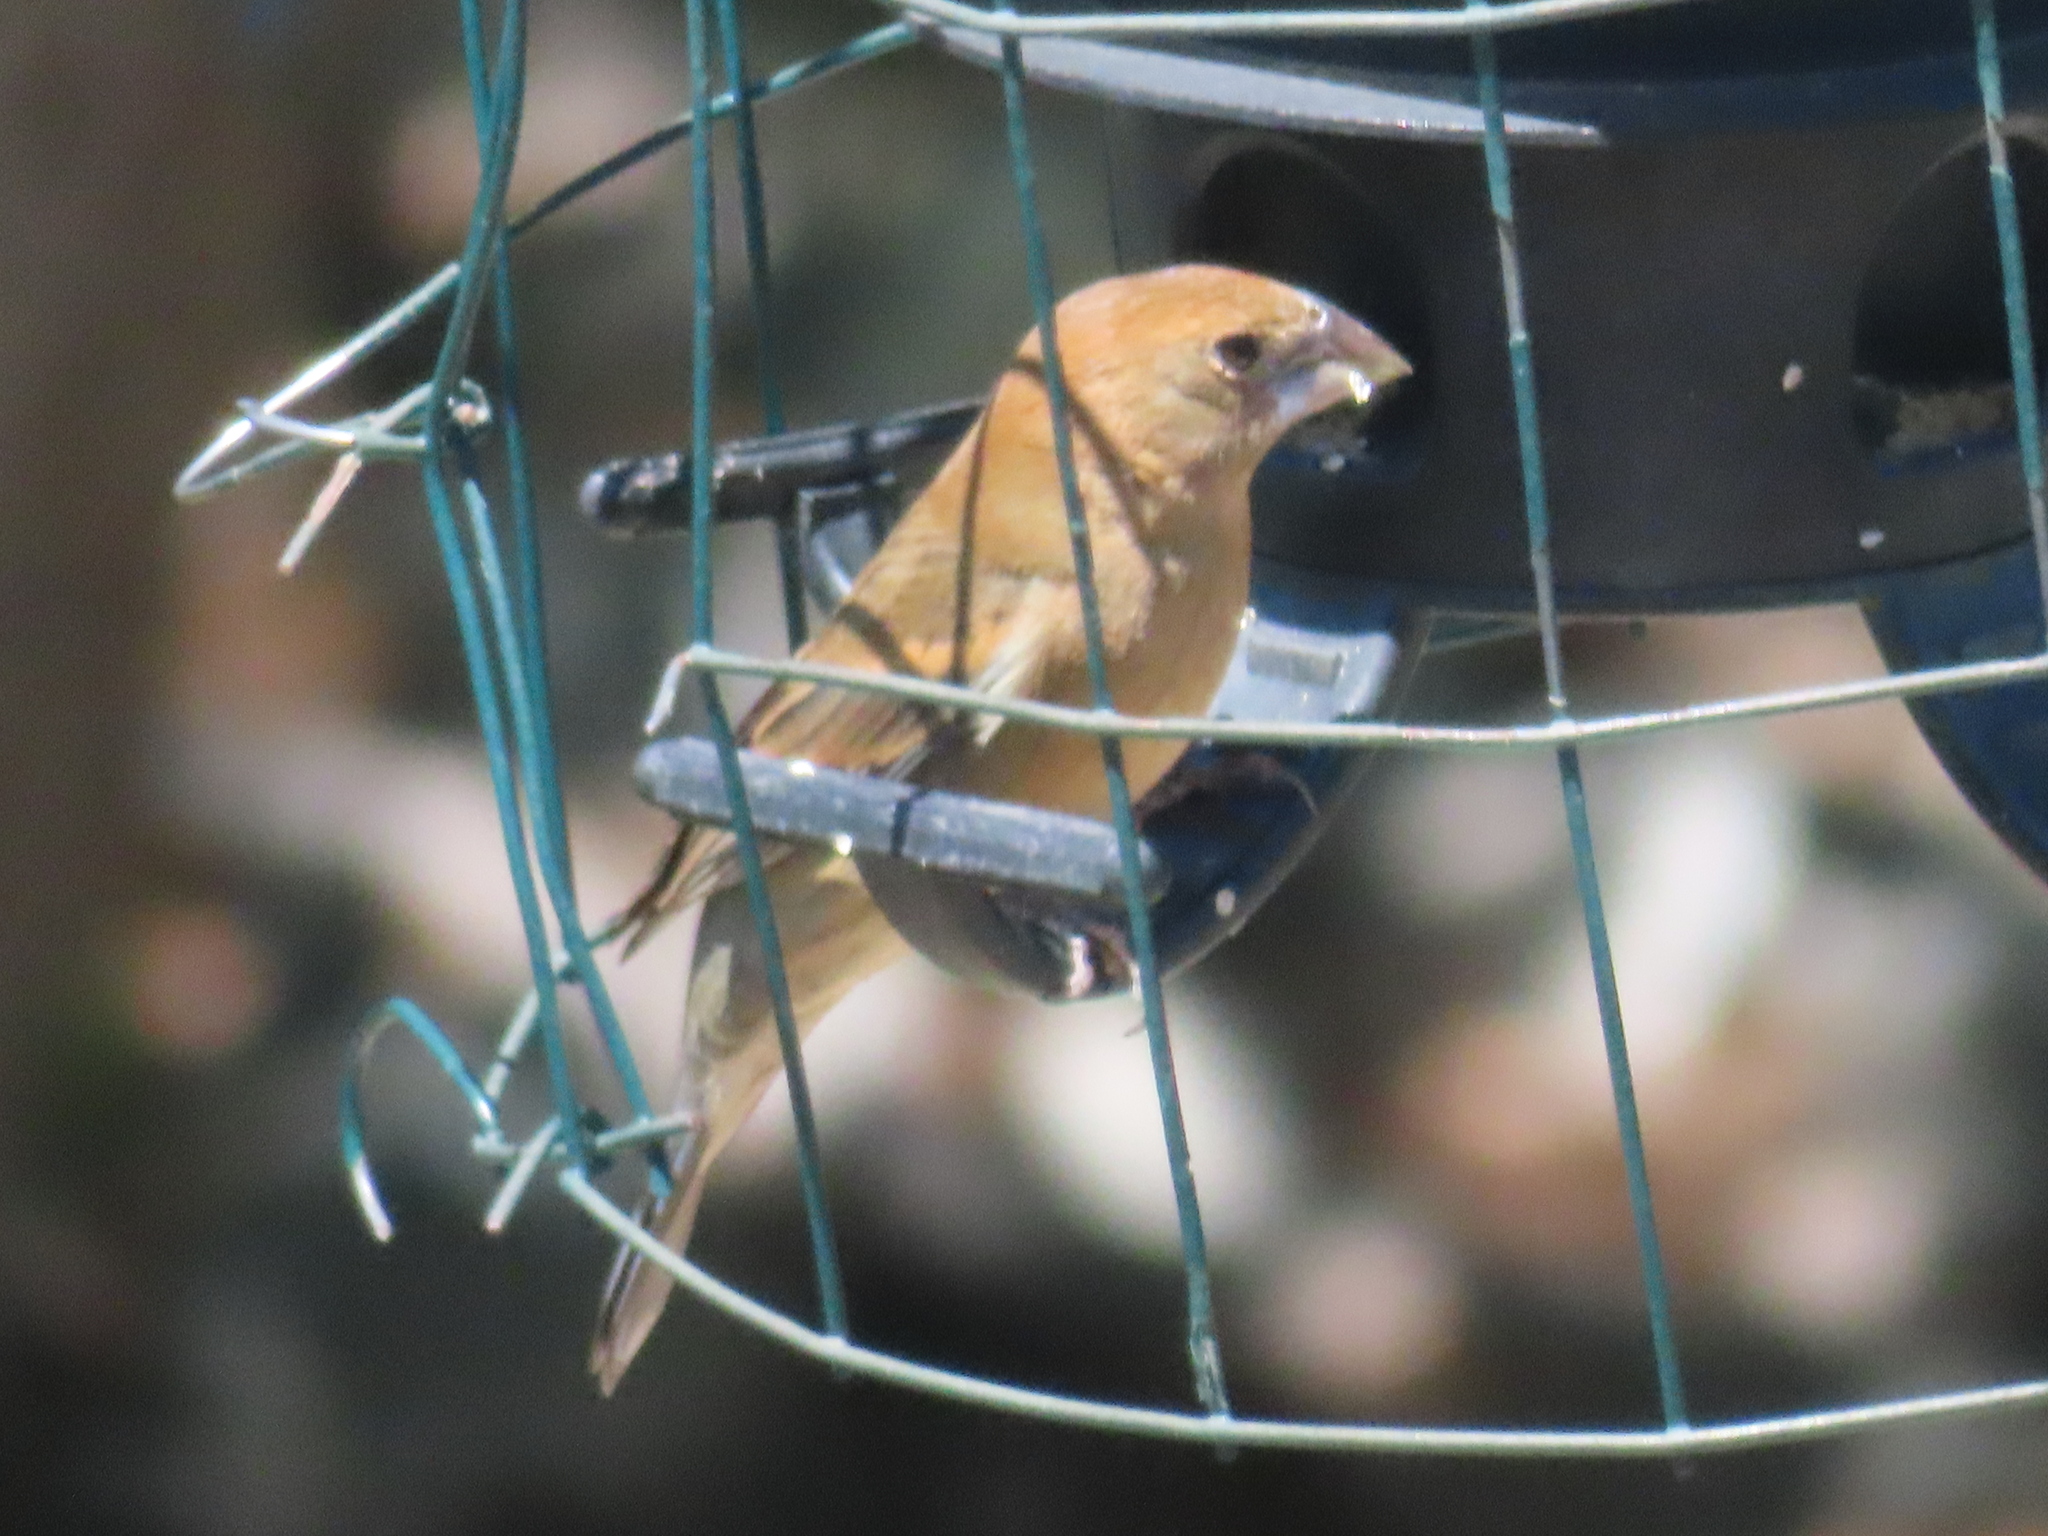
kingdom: Animalia
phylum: Chordata
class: Aves
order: Passeriformes
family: Cardinalidae
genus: Passerina
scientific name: Passerina caerulea
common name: Blue grosbeak
